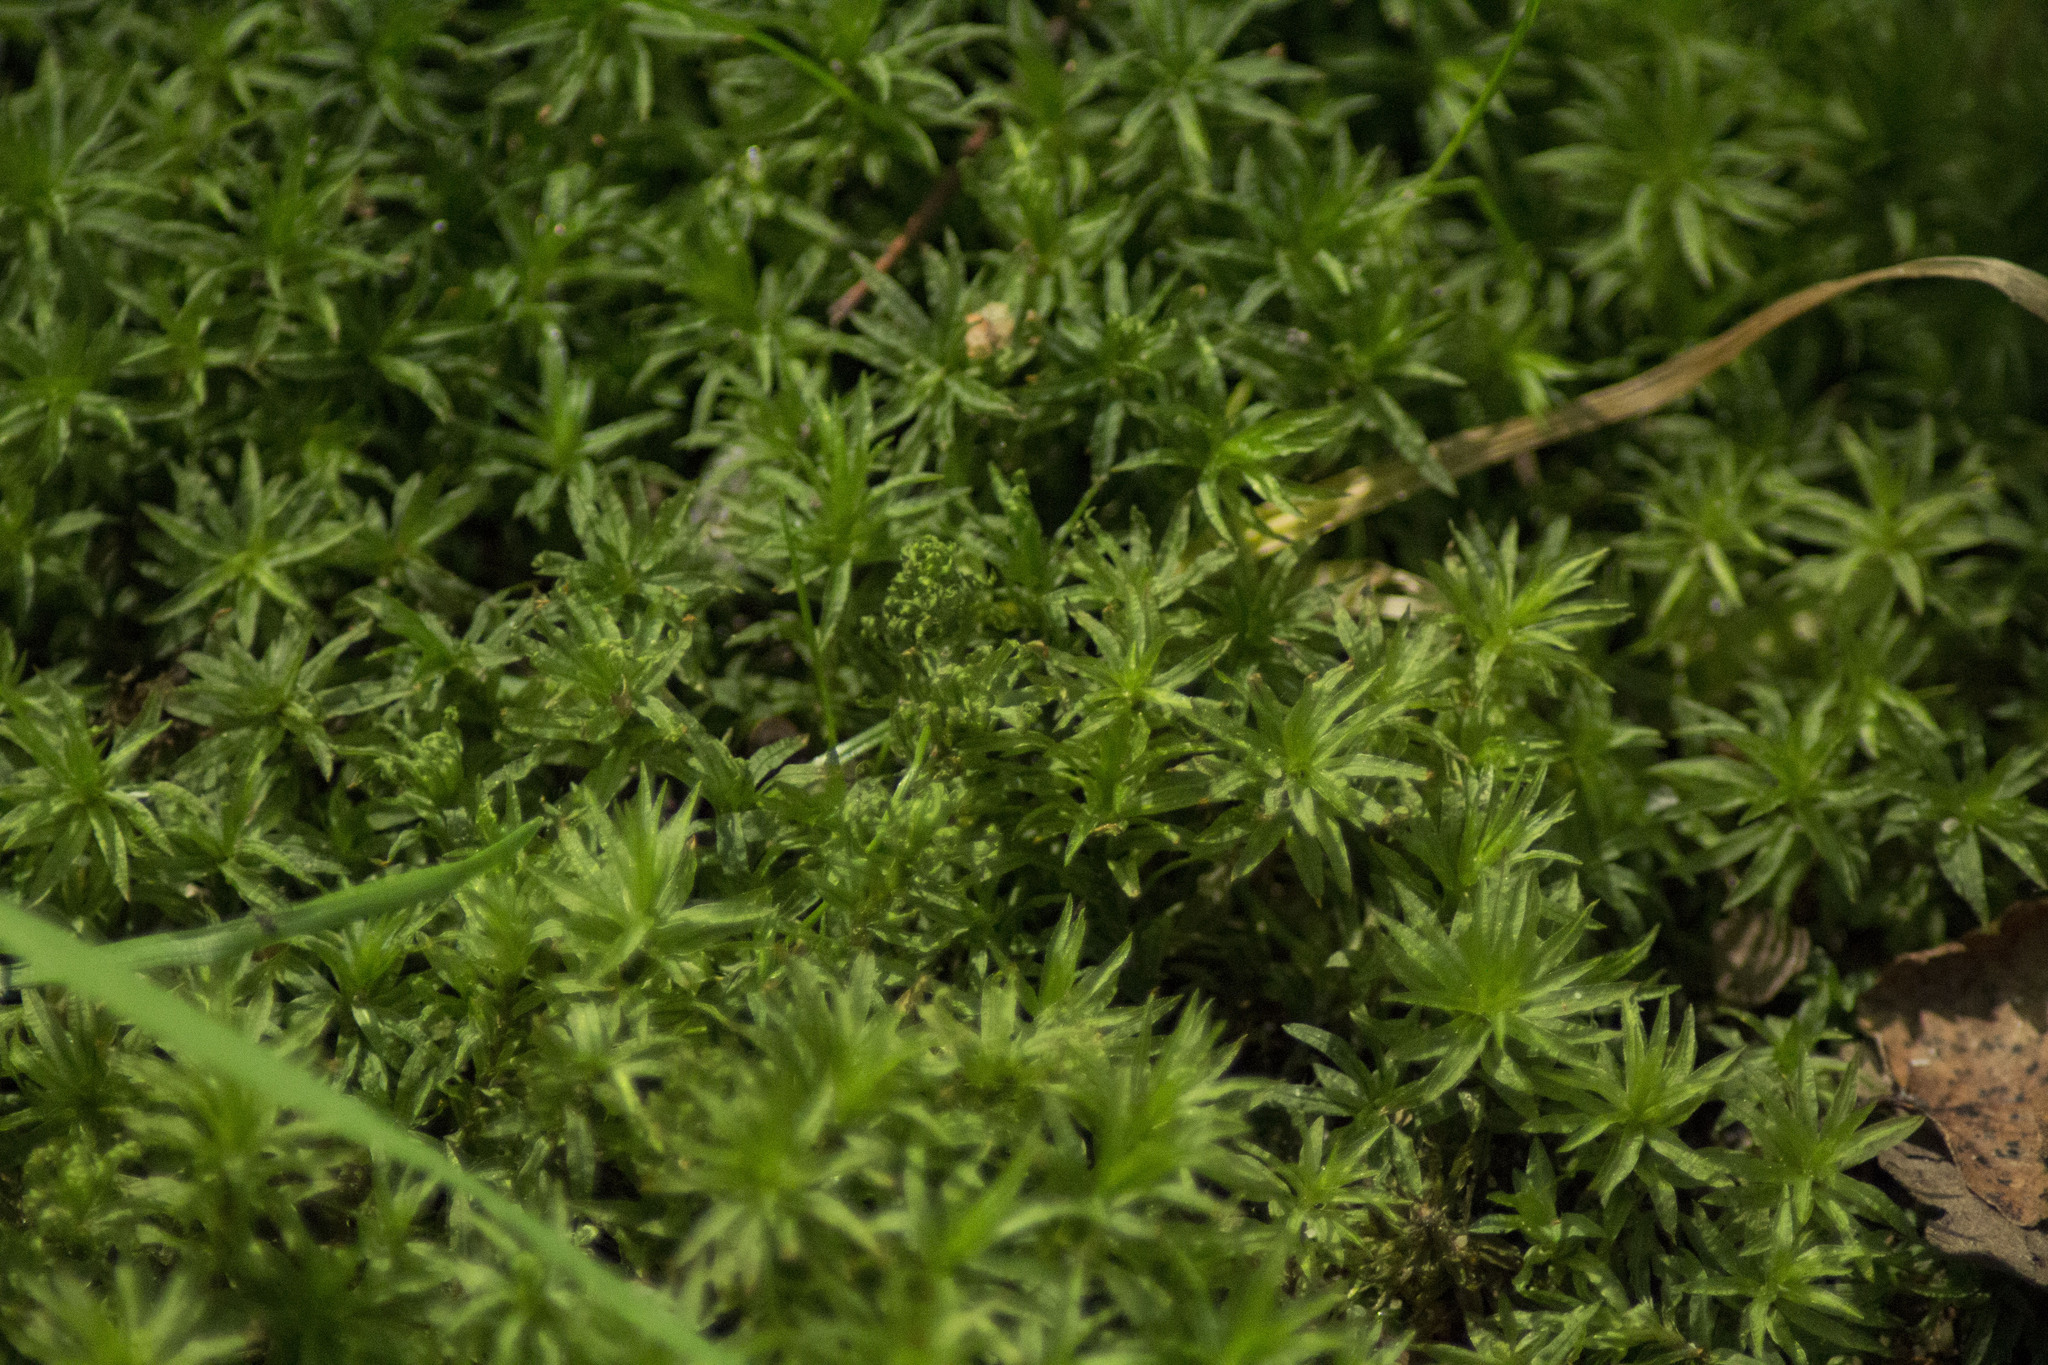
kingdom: Plantae
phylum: Bryophyta
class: Polytrichopsida
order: Polytrichales
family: Polytrichaceae
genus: Atrichum
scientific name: Atrichum undulatum
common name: Common smoothcap
